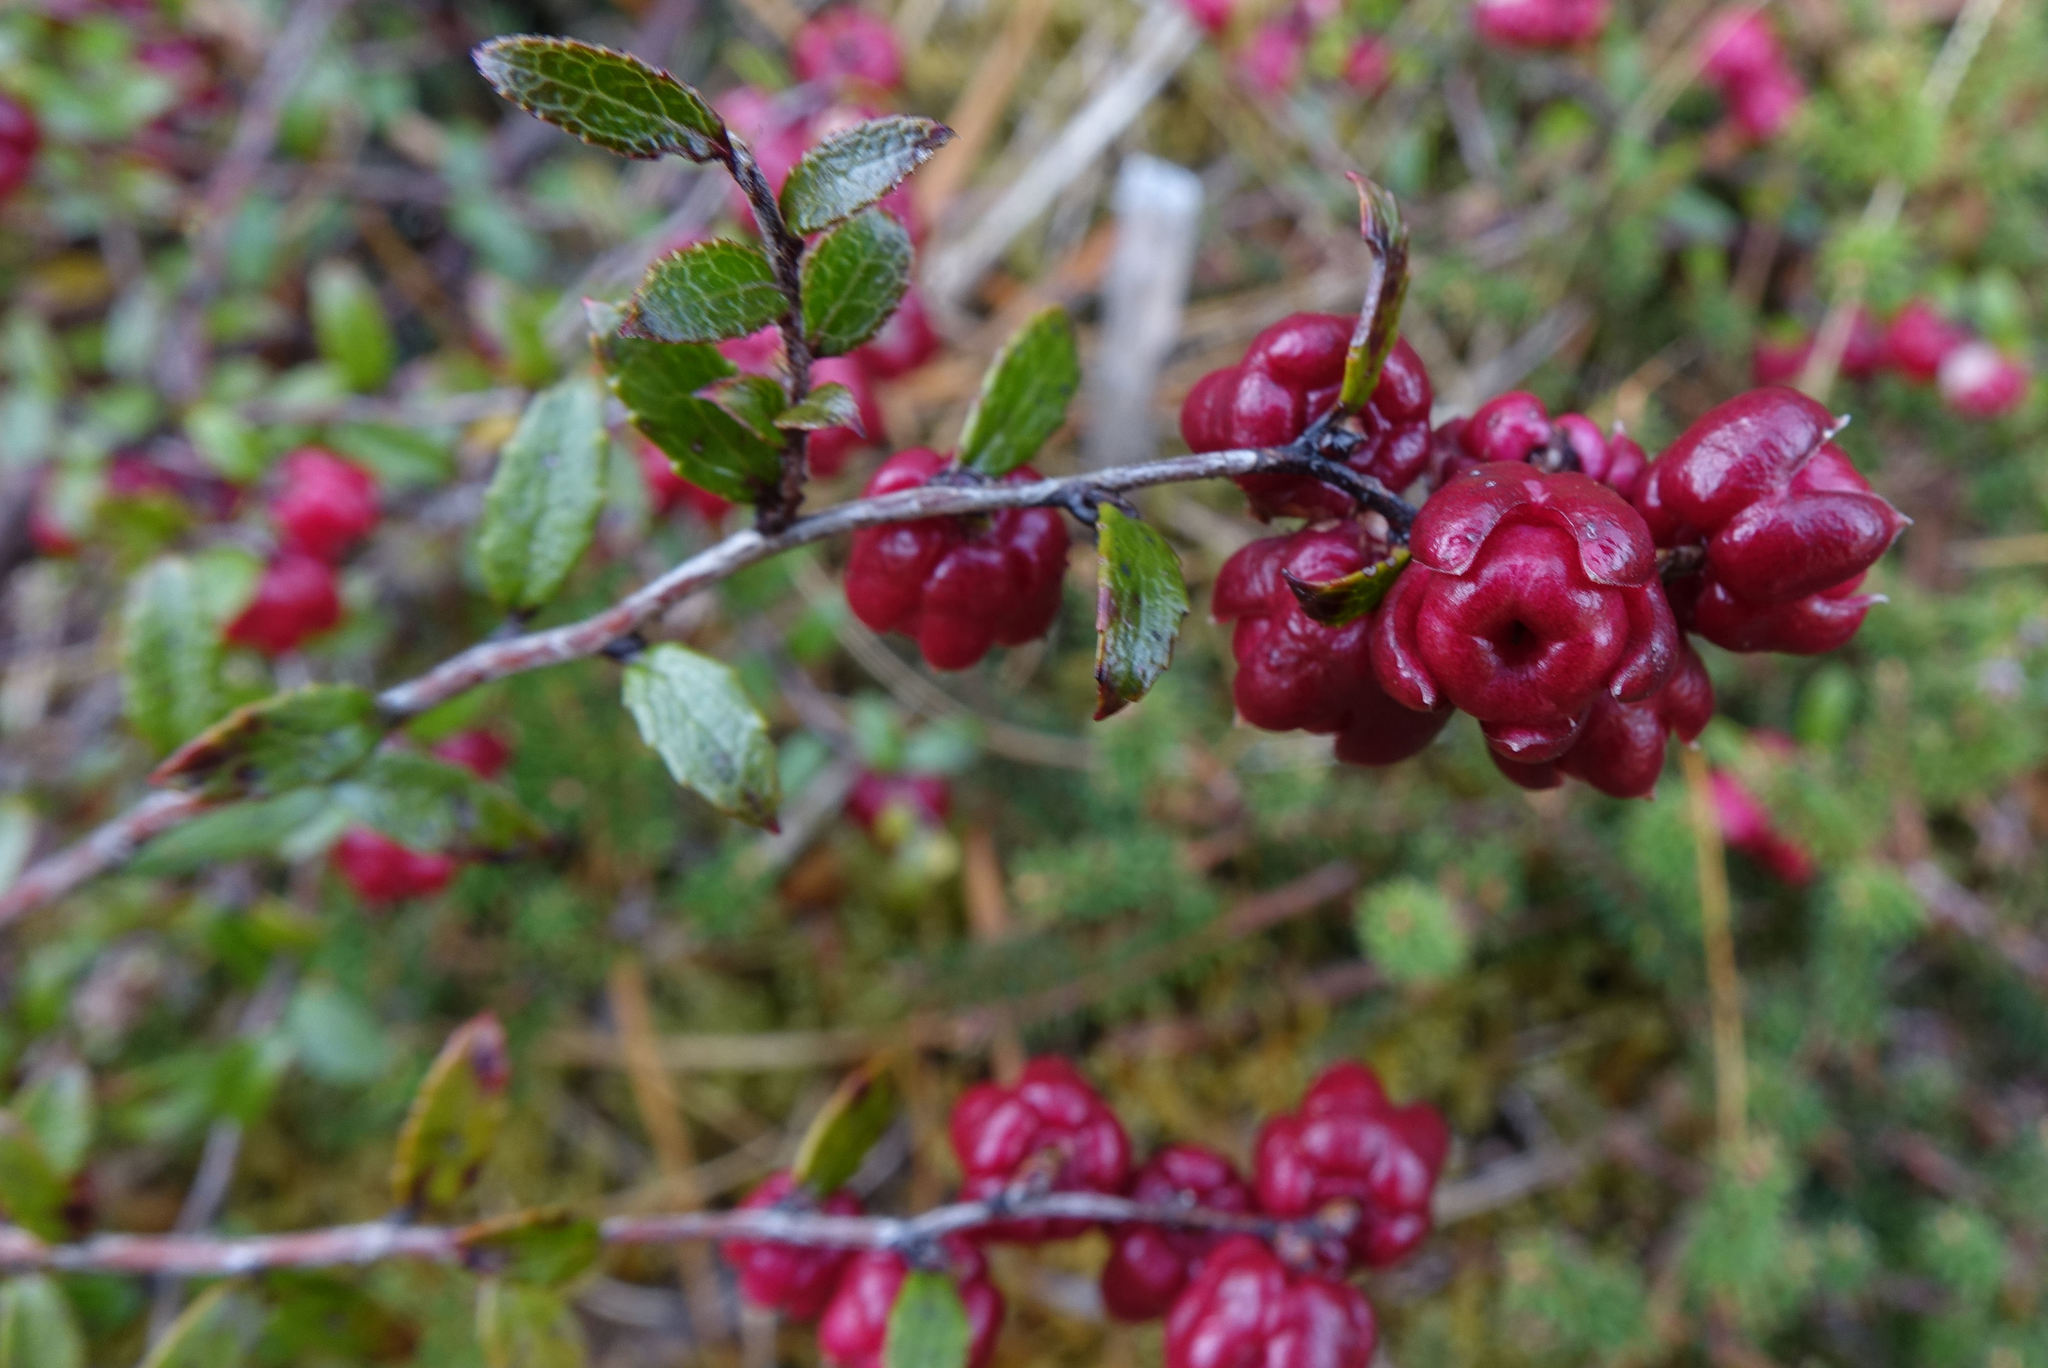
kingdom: Plantae
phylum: Tracheophyta
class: Magnoliopsida
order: Ericales
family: Ericaceae
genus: Gaultheria
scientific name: Gaultheria
